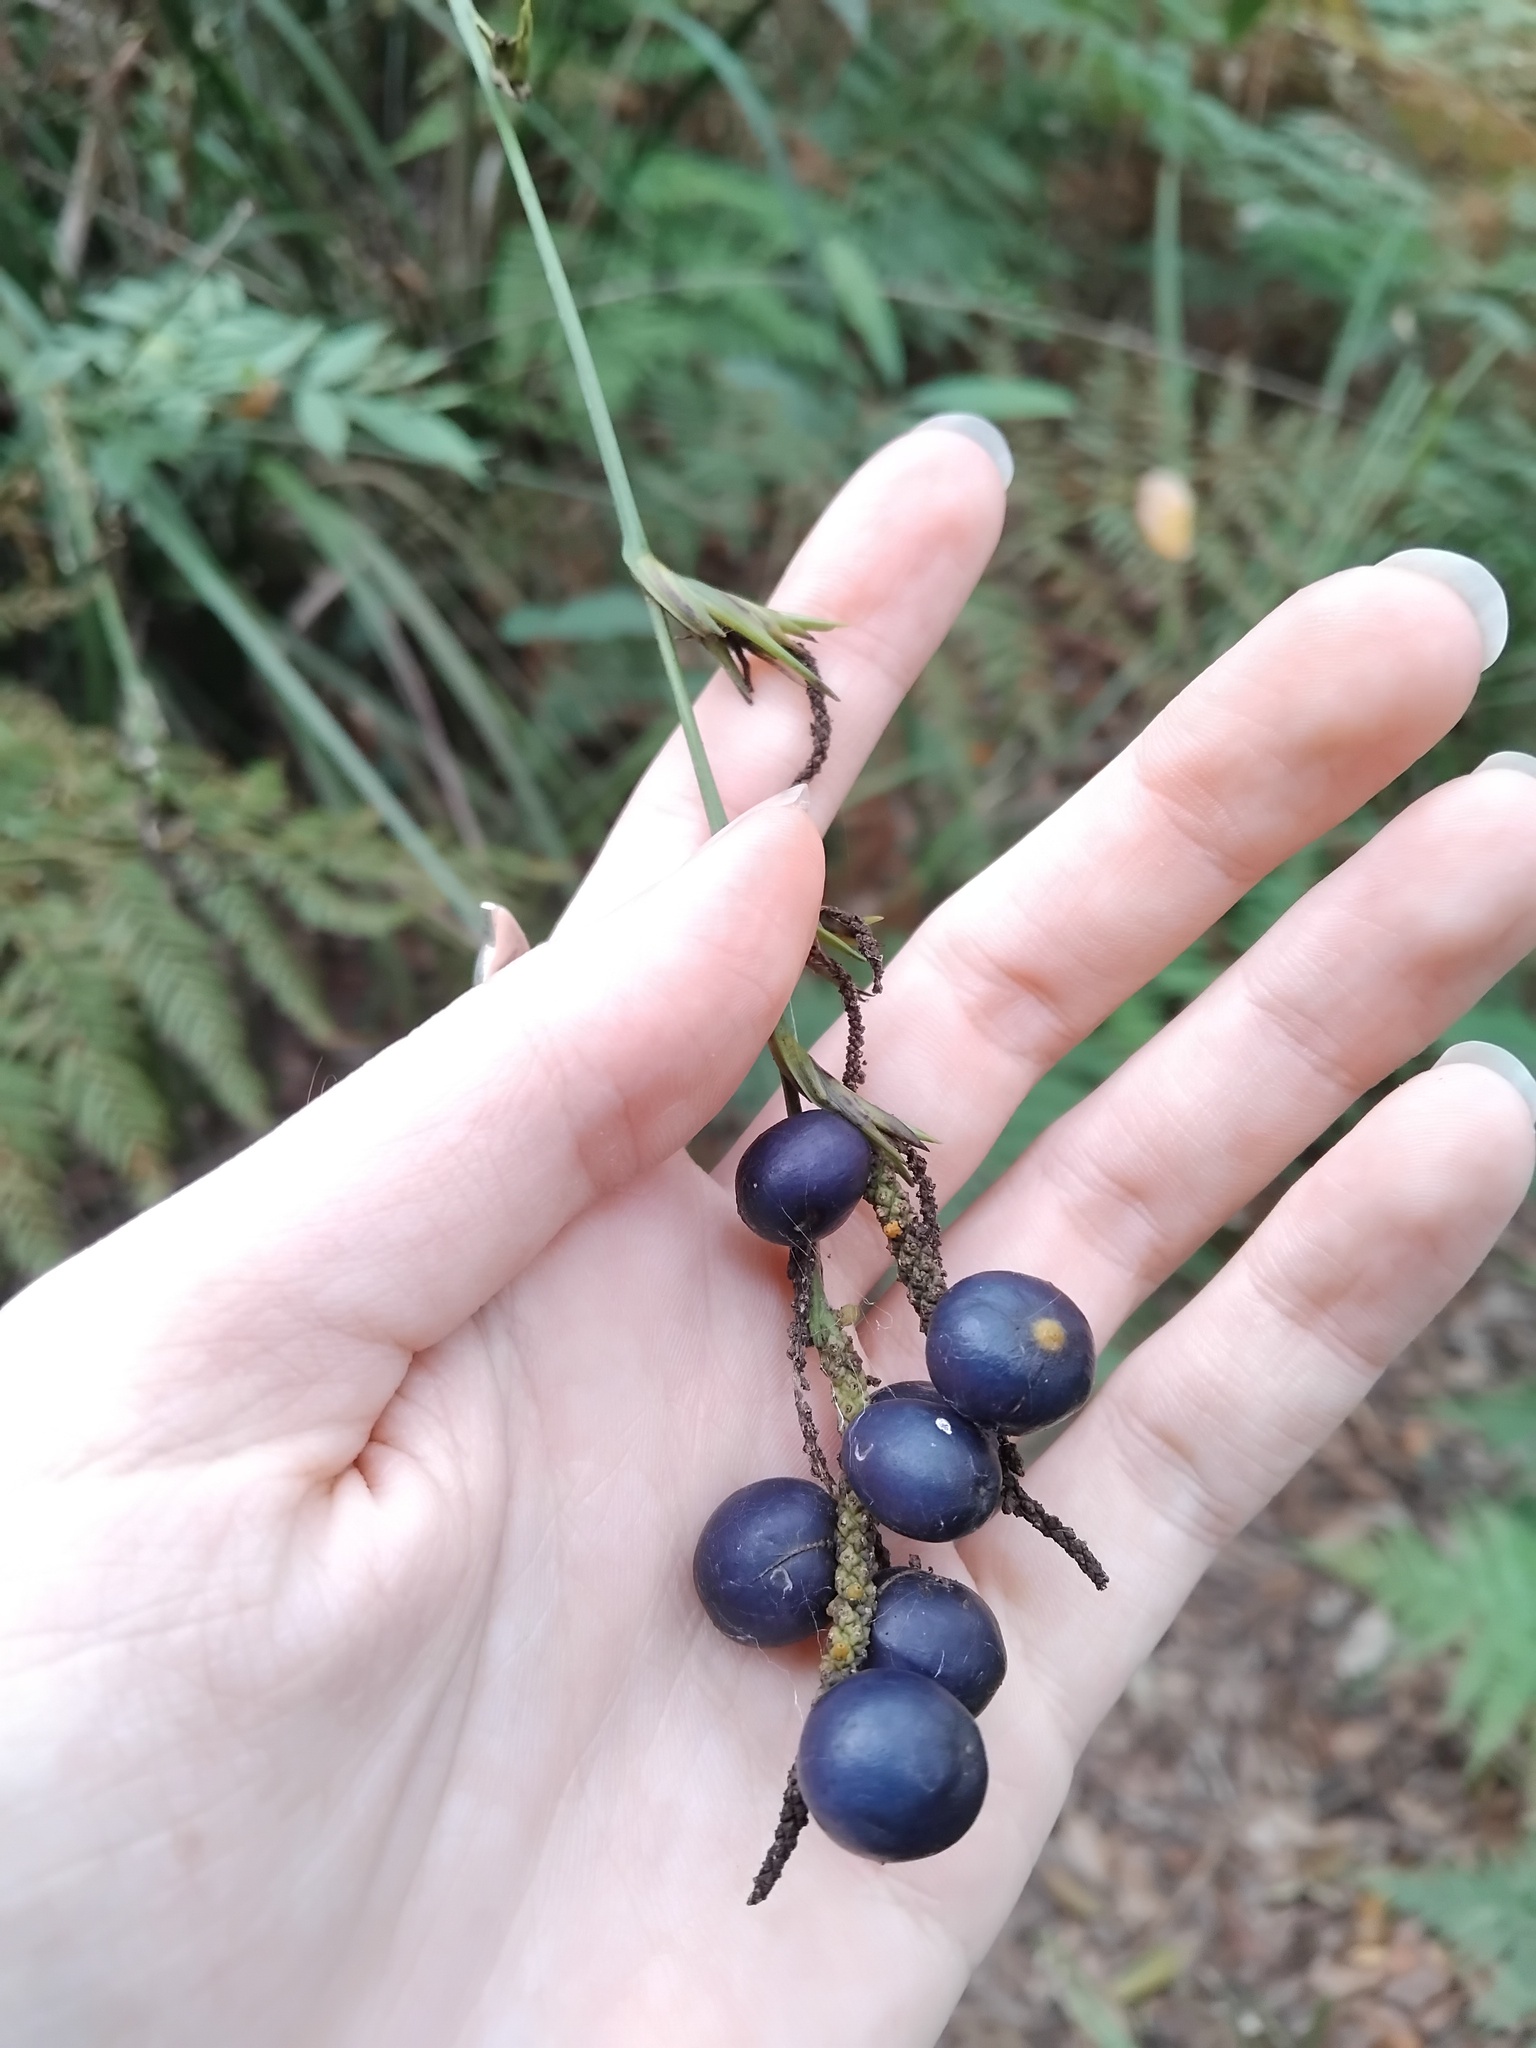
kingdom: Plantae
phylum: Tracheophyta
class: Liliopsida
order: Alismatales
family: Araceae
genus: Gymnostachys
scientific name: Gymnostachys anceps
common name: Settler's-flax
